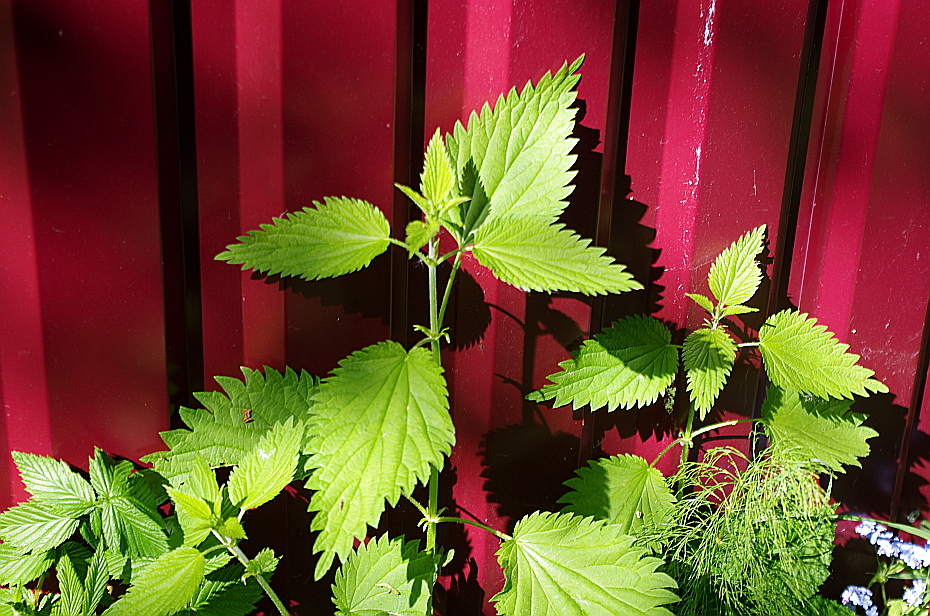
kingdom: Plantae
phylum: Tracheophyta
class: Magnoliopsida
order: Rosales
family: Urticaceae
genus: Urtica
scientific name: Urtica dioica
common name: Common nettle
